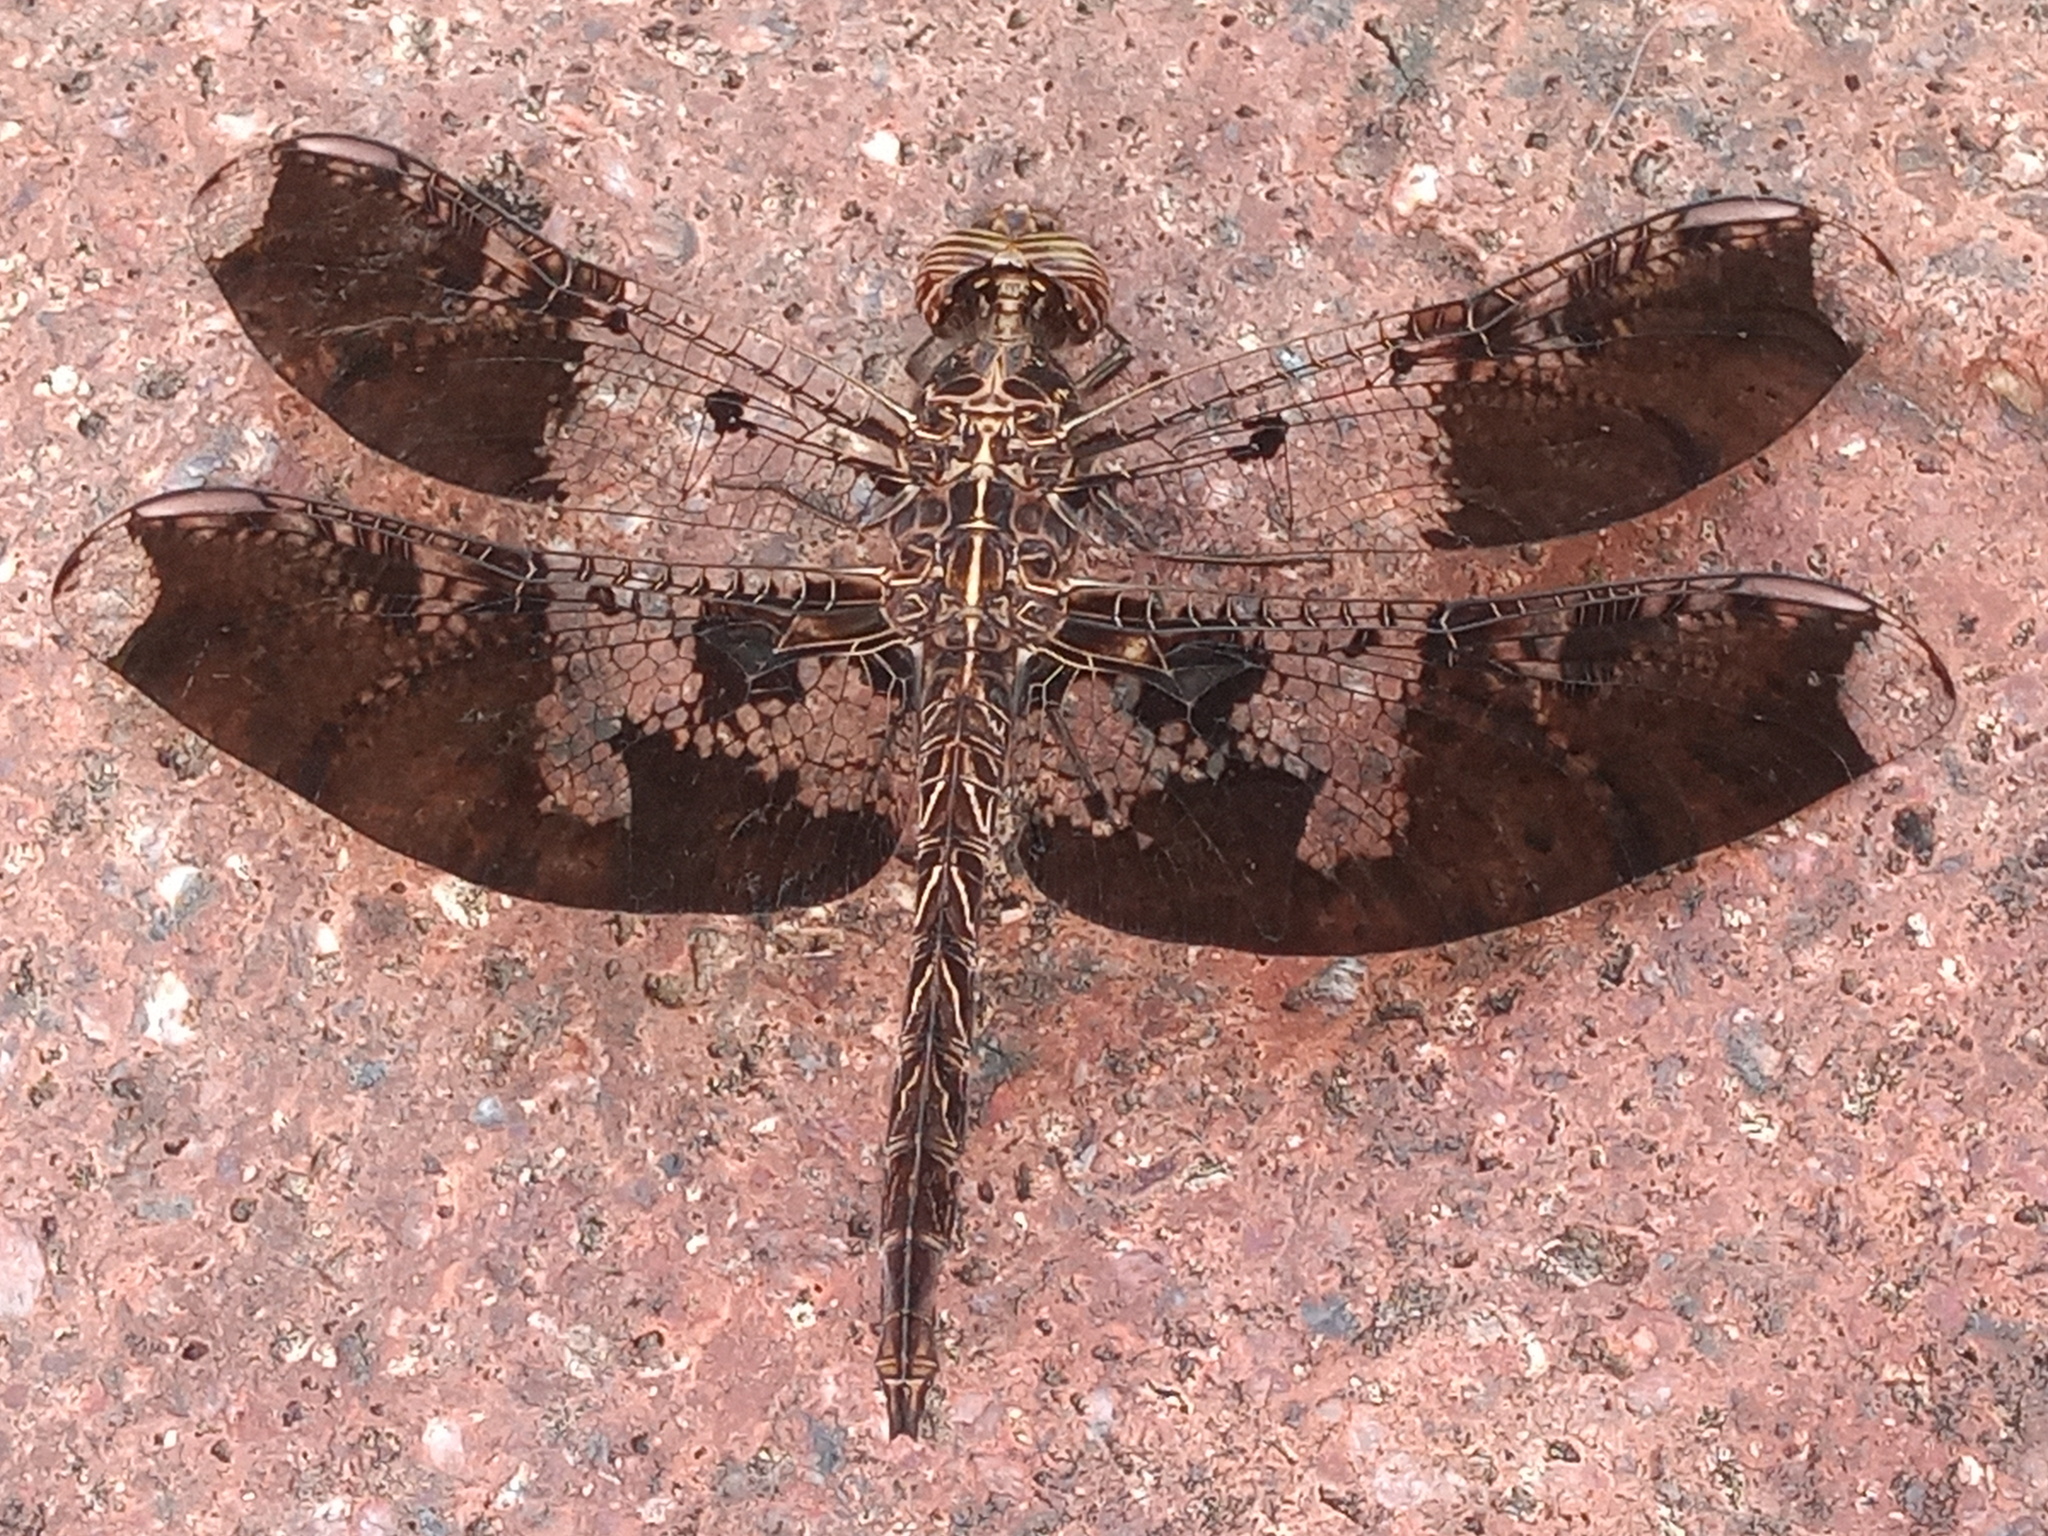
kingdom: Animalia
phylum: Arthropoda
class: Insecta
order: Odonata
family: Libellulidae
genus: Pseudoleon
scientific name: Pseudoleon superbus
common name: Filigree skimmer
